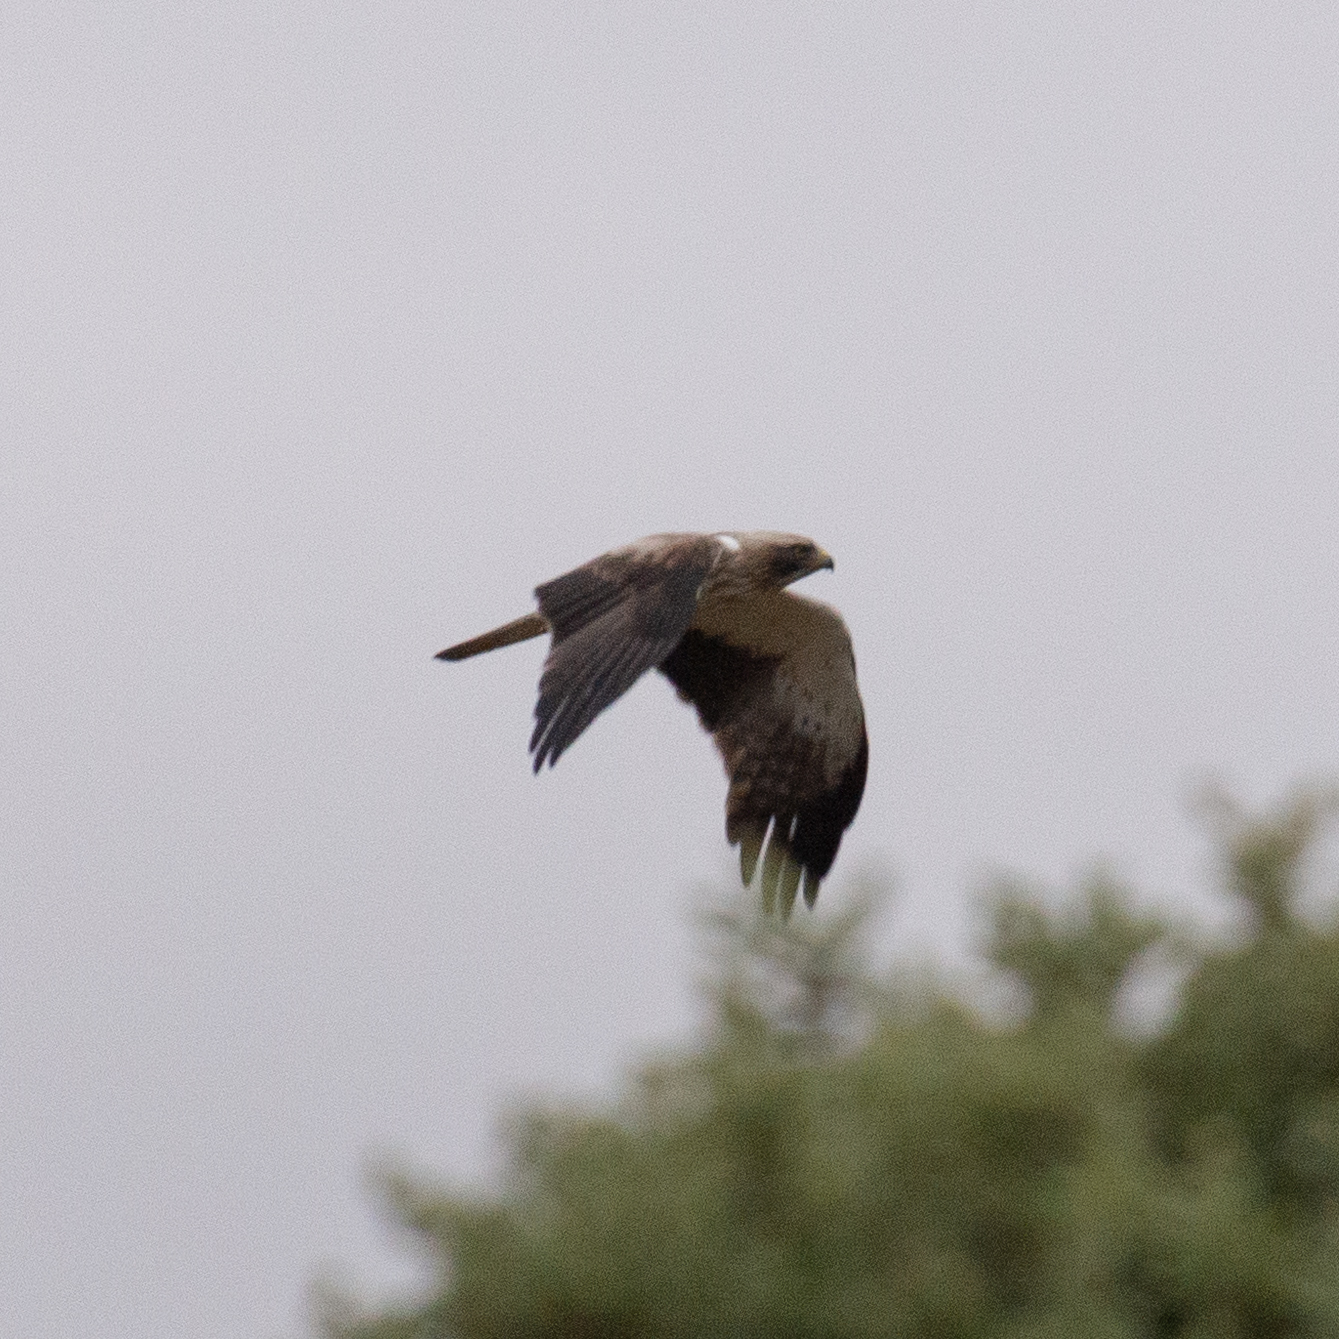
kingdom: Animalia
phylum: Chordata
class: Aves
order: Accipitriformes
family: Accipitridae
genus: Hieraaetus
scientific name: Hieraaetus pennatus
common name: Booted eagle
